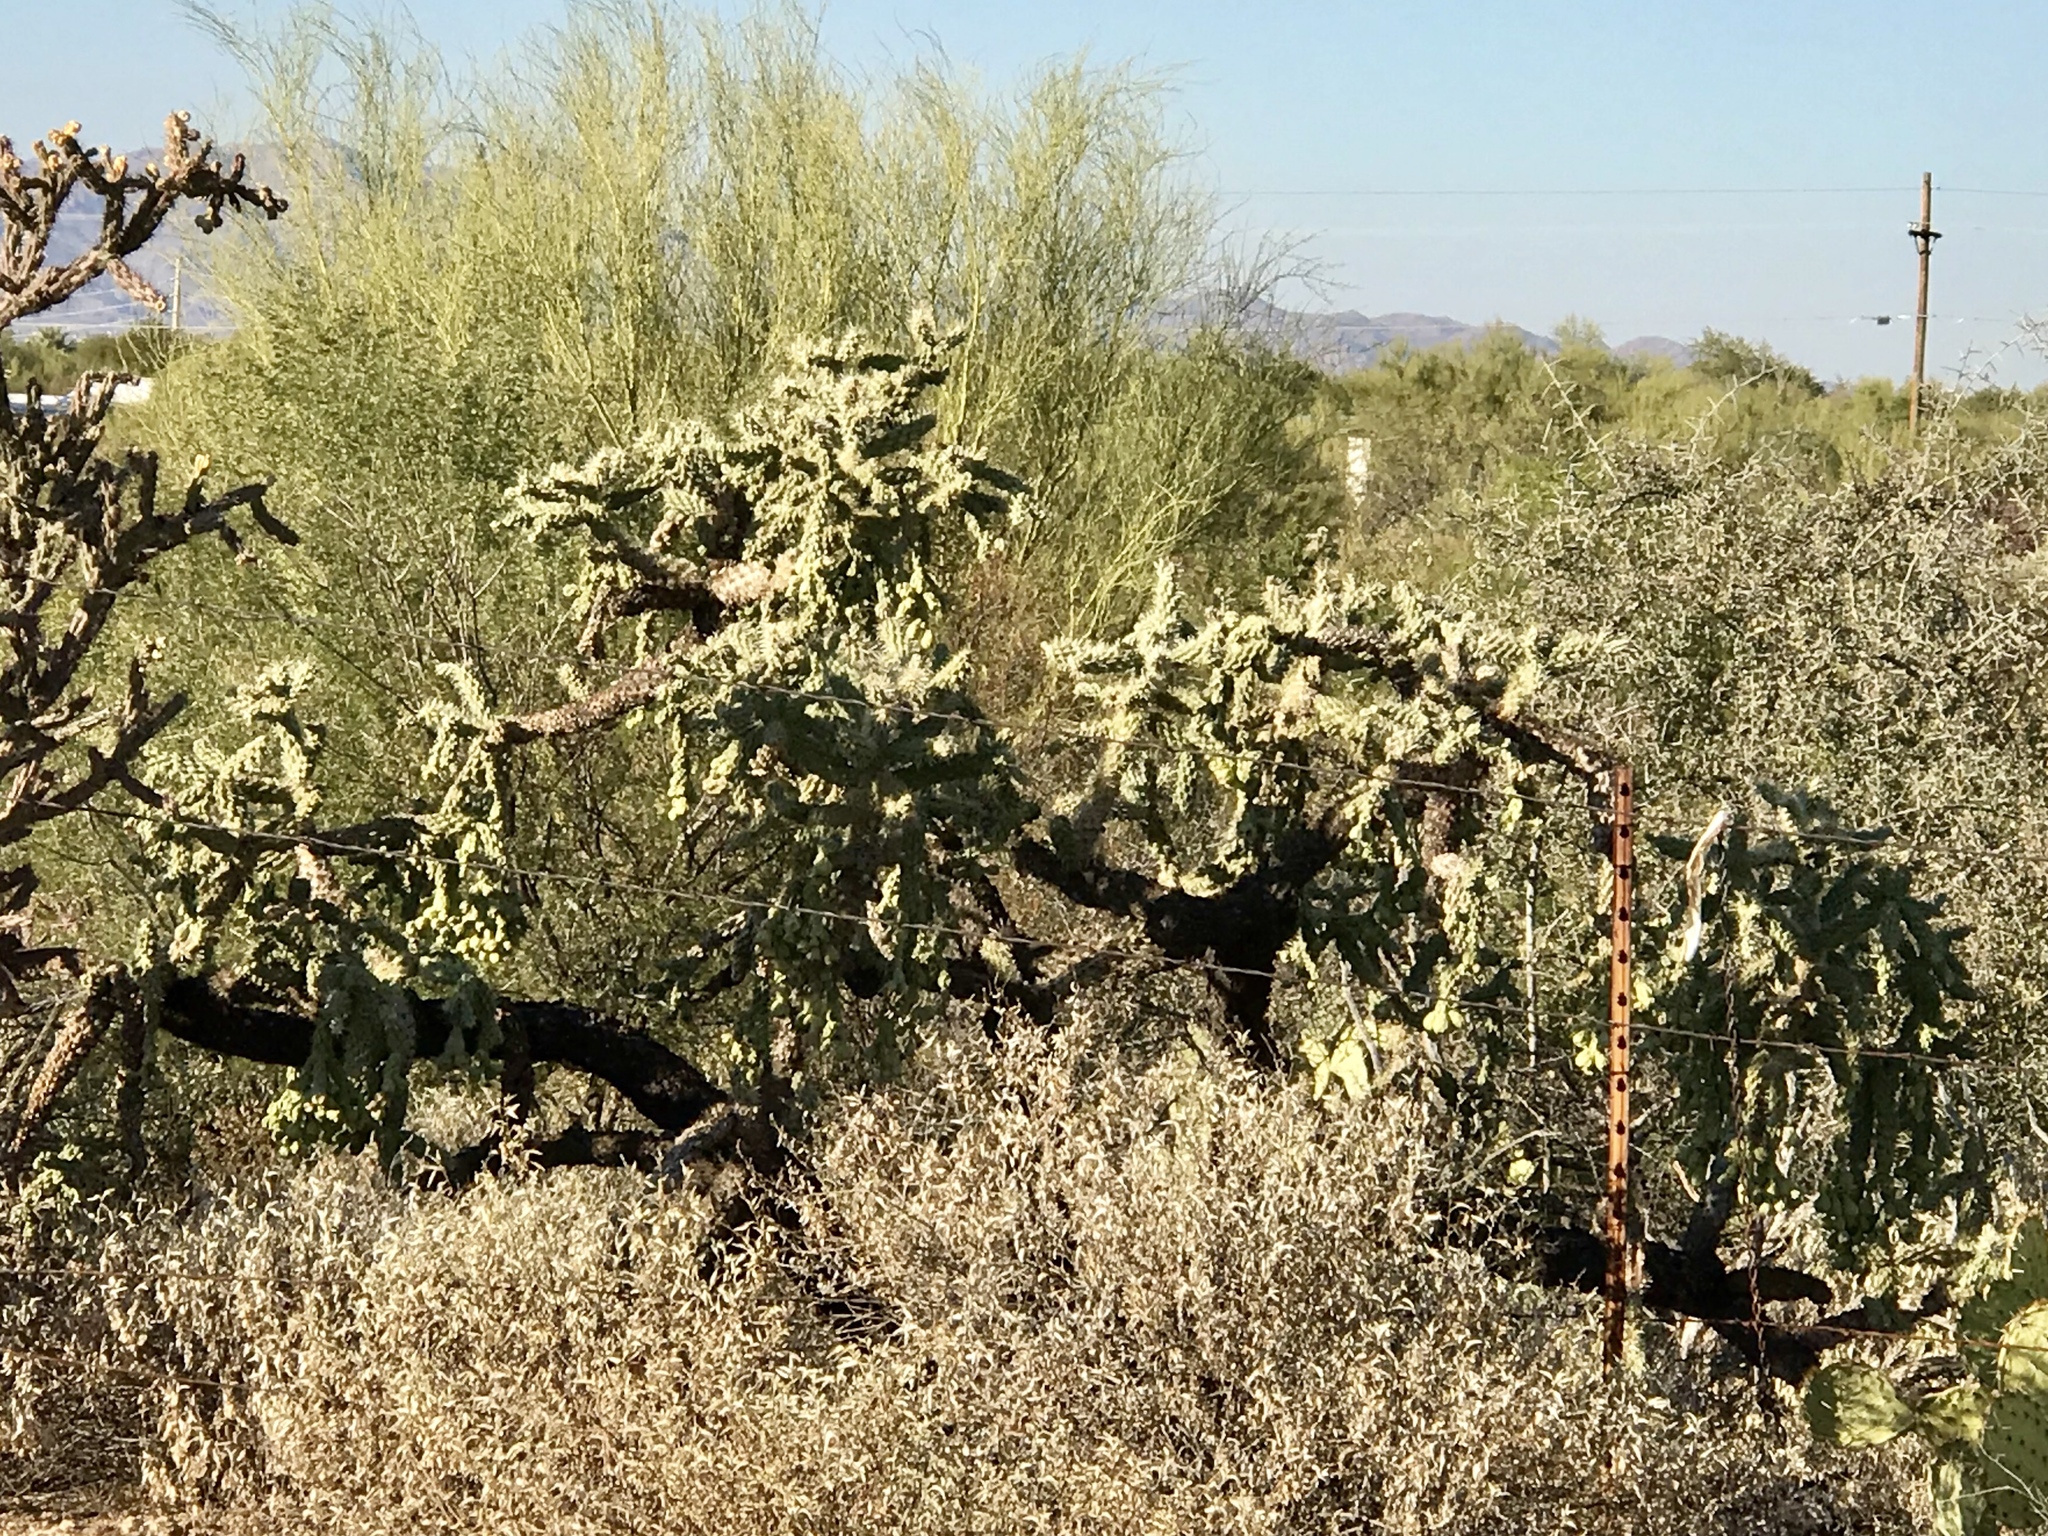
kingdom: Plantae
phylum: Tracheophyta
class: Magnoliopsida
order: Caryophyllales
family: Cactaceae
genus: Cylindropuntia
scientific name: Cylindropuntia fulgida
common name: Jumping cholla
